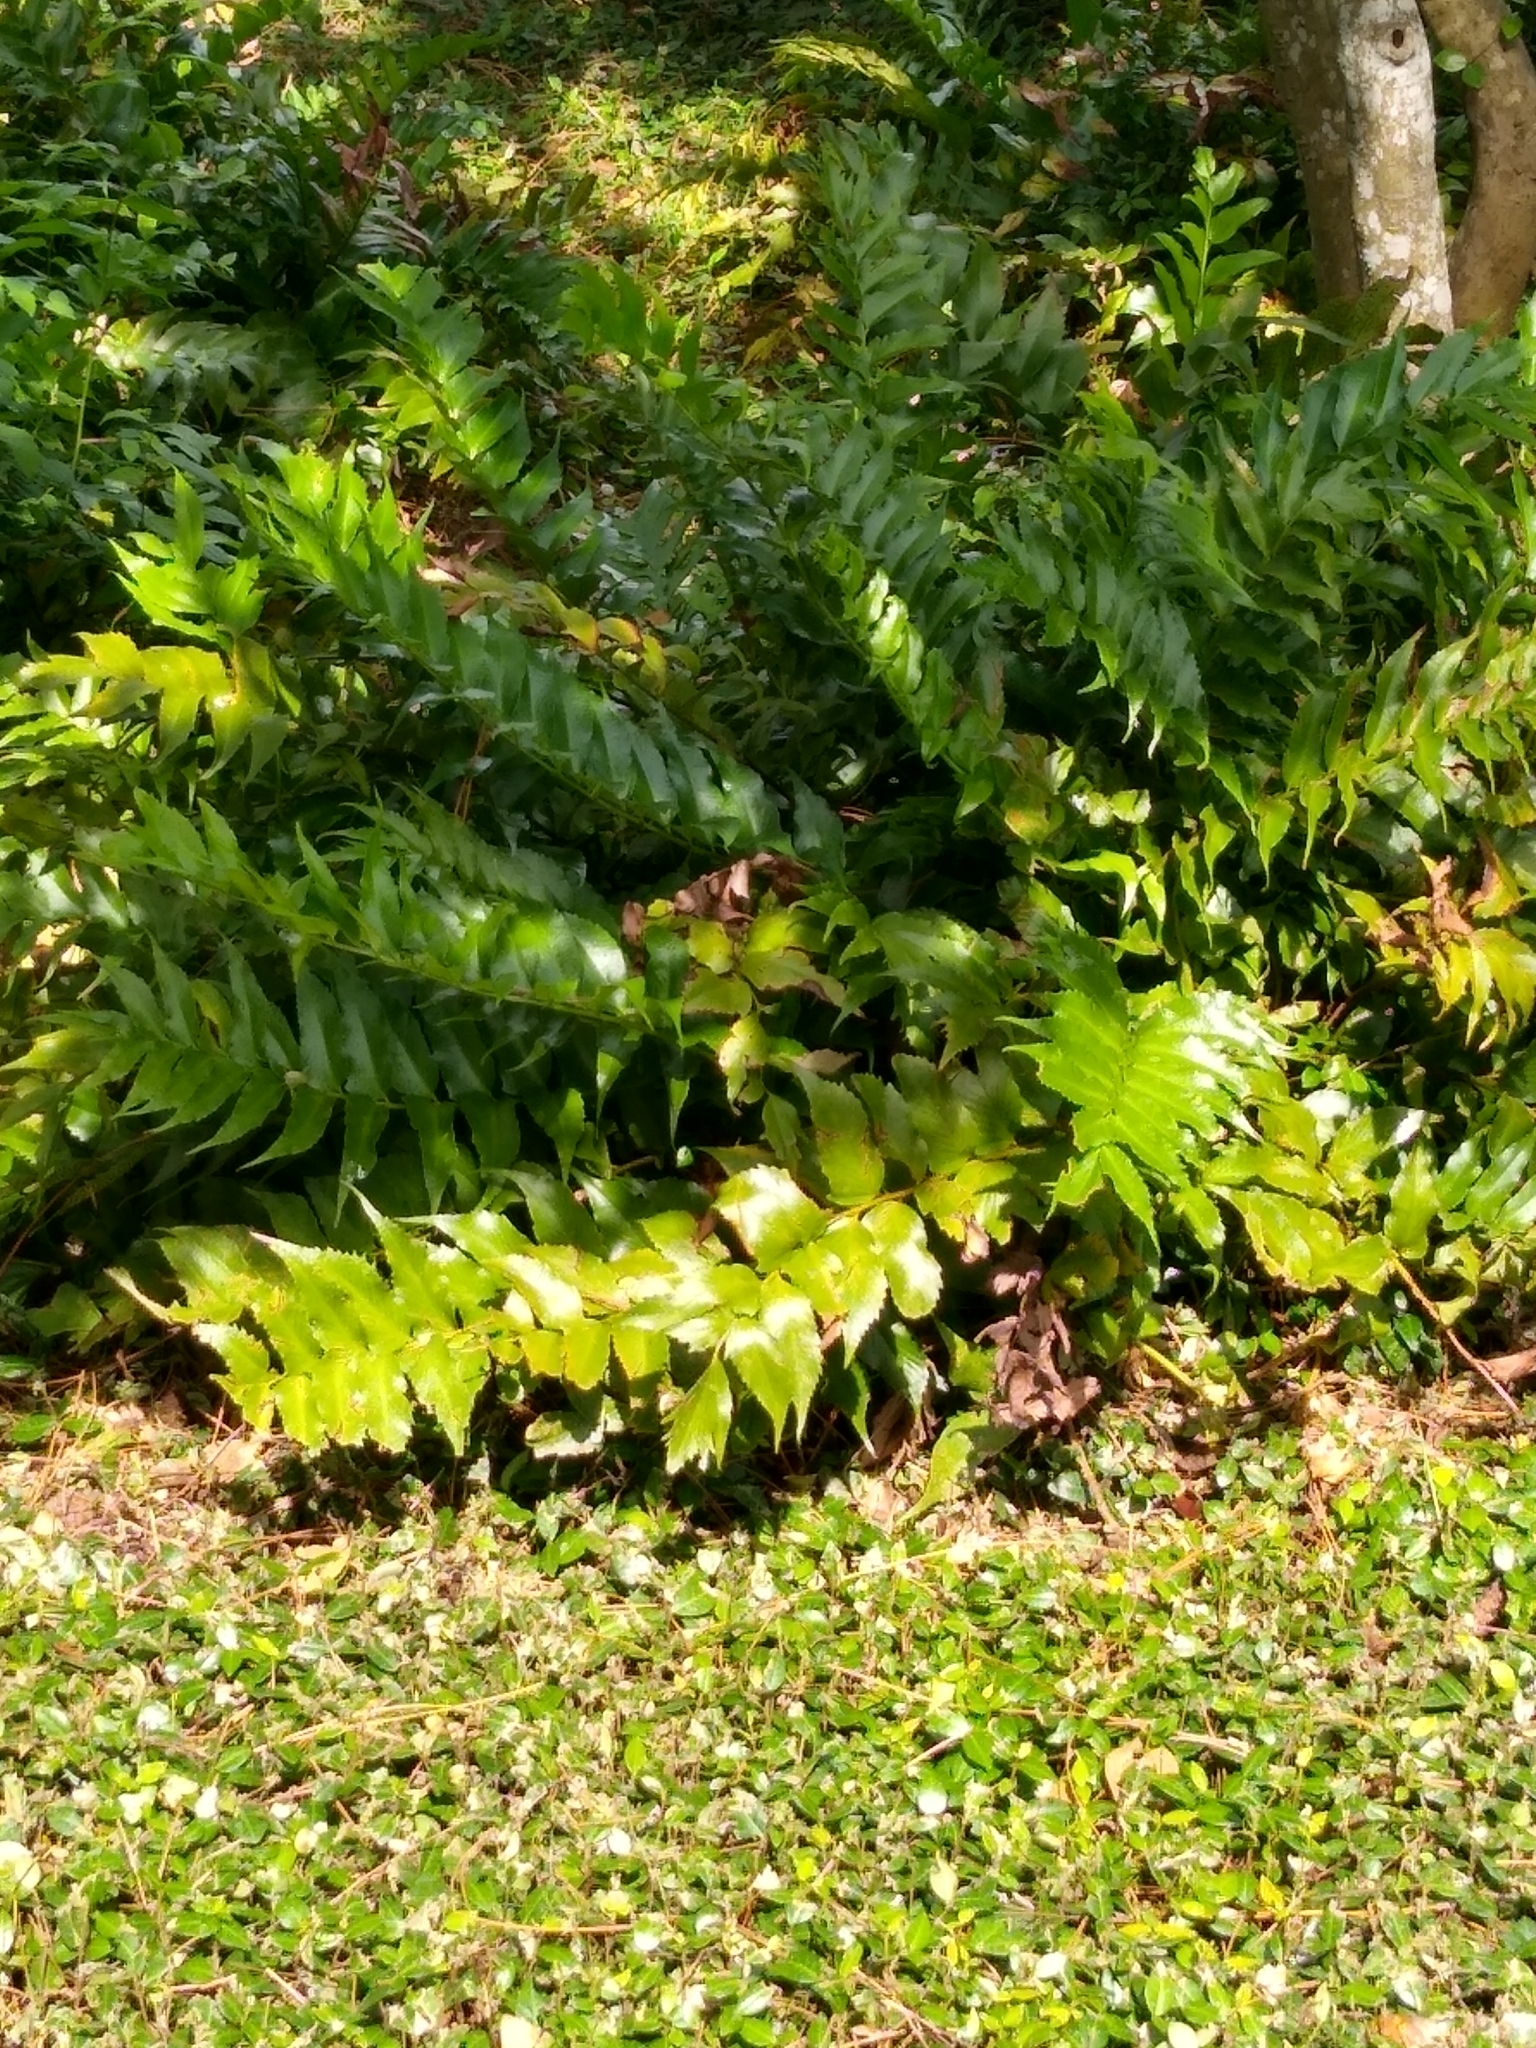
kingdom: Plantae
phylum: Tracheophyta
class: Polypodiopsida
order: Polypodiales
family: Dryopteridaceae
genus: Cyrtomium
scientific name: Cyrtomium falcatum
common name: House holly-fern
